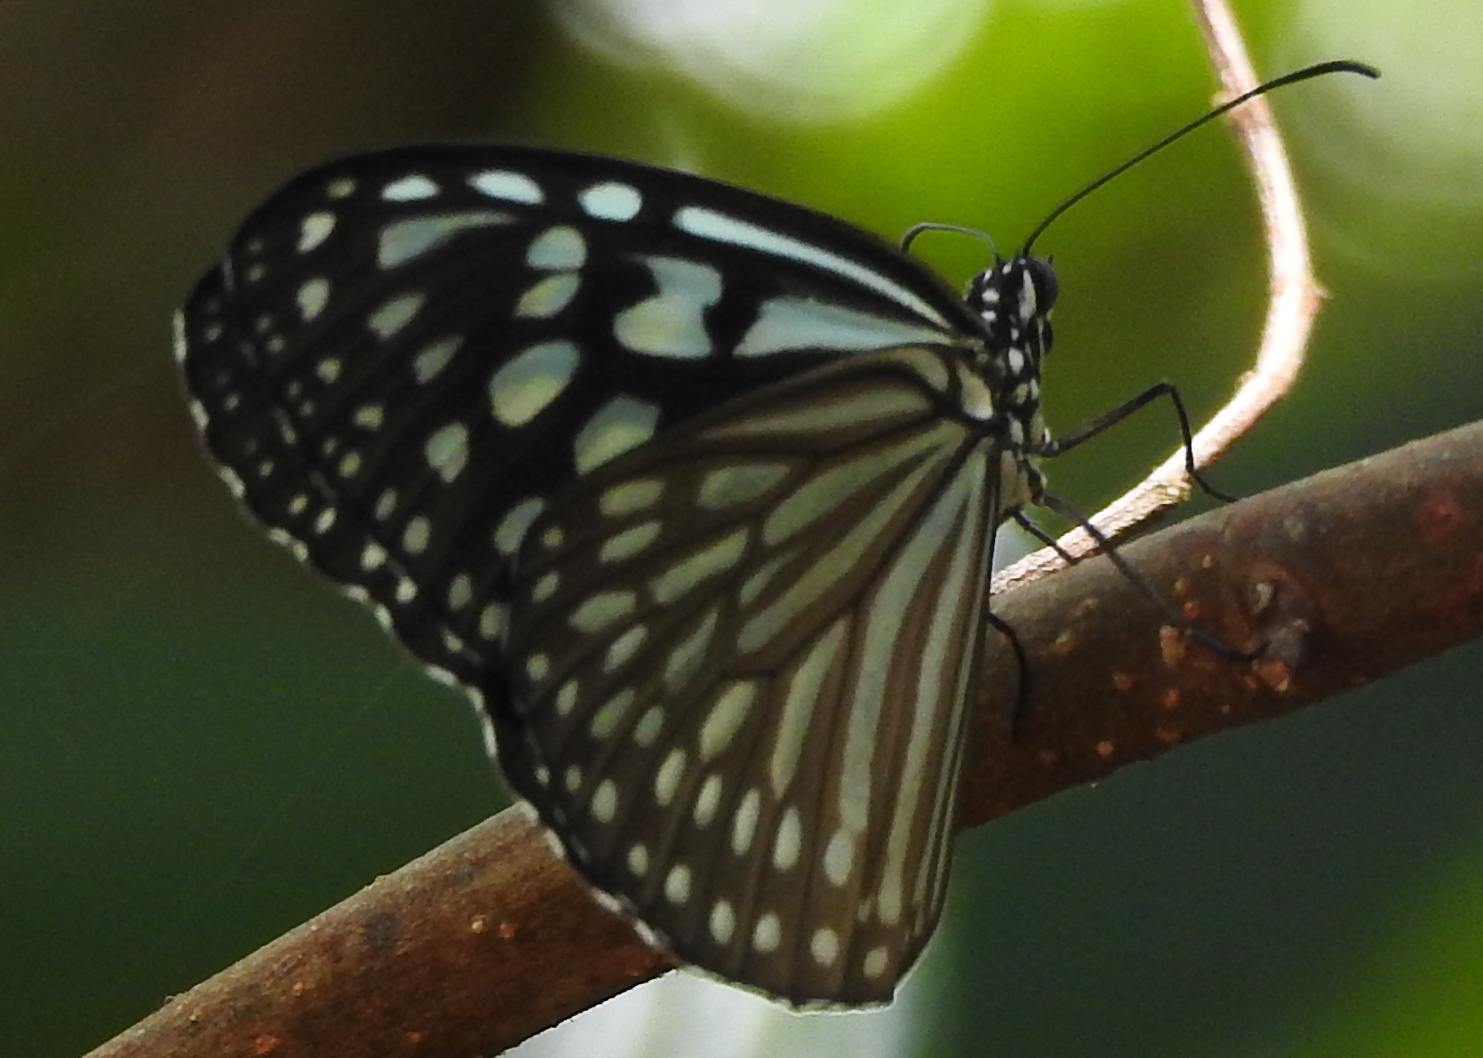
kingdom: Animalia
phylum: Arthropoda
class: Insecta
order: Lepidoptera
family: Nymphalidae
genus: Ideopsis
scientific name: Ideopsis vulgaris
